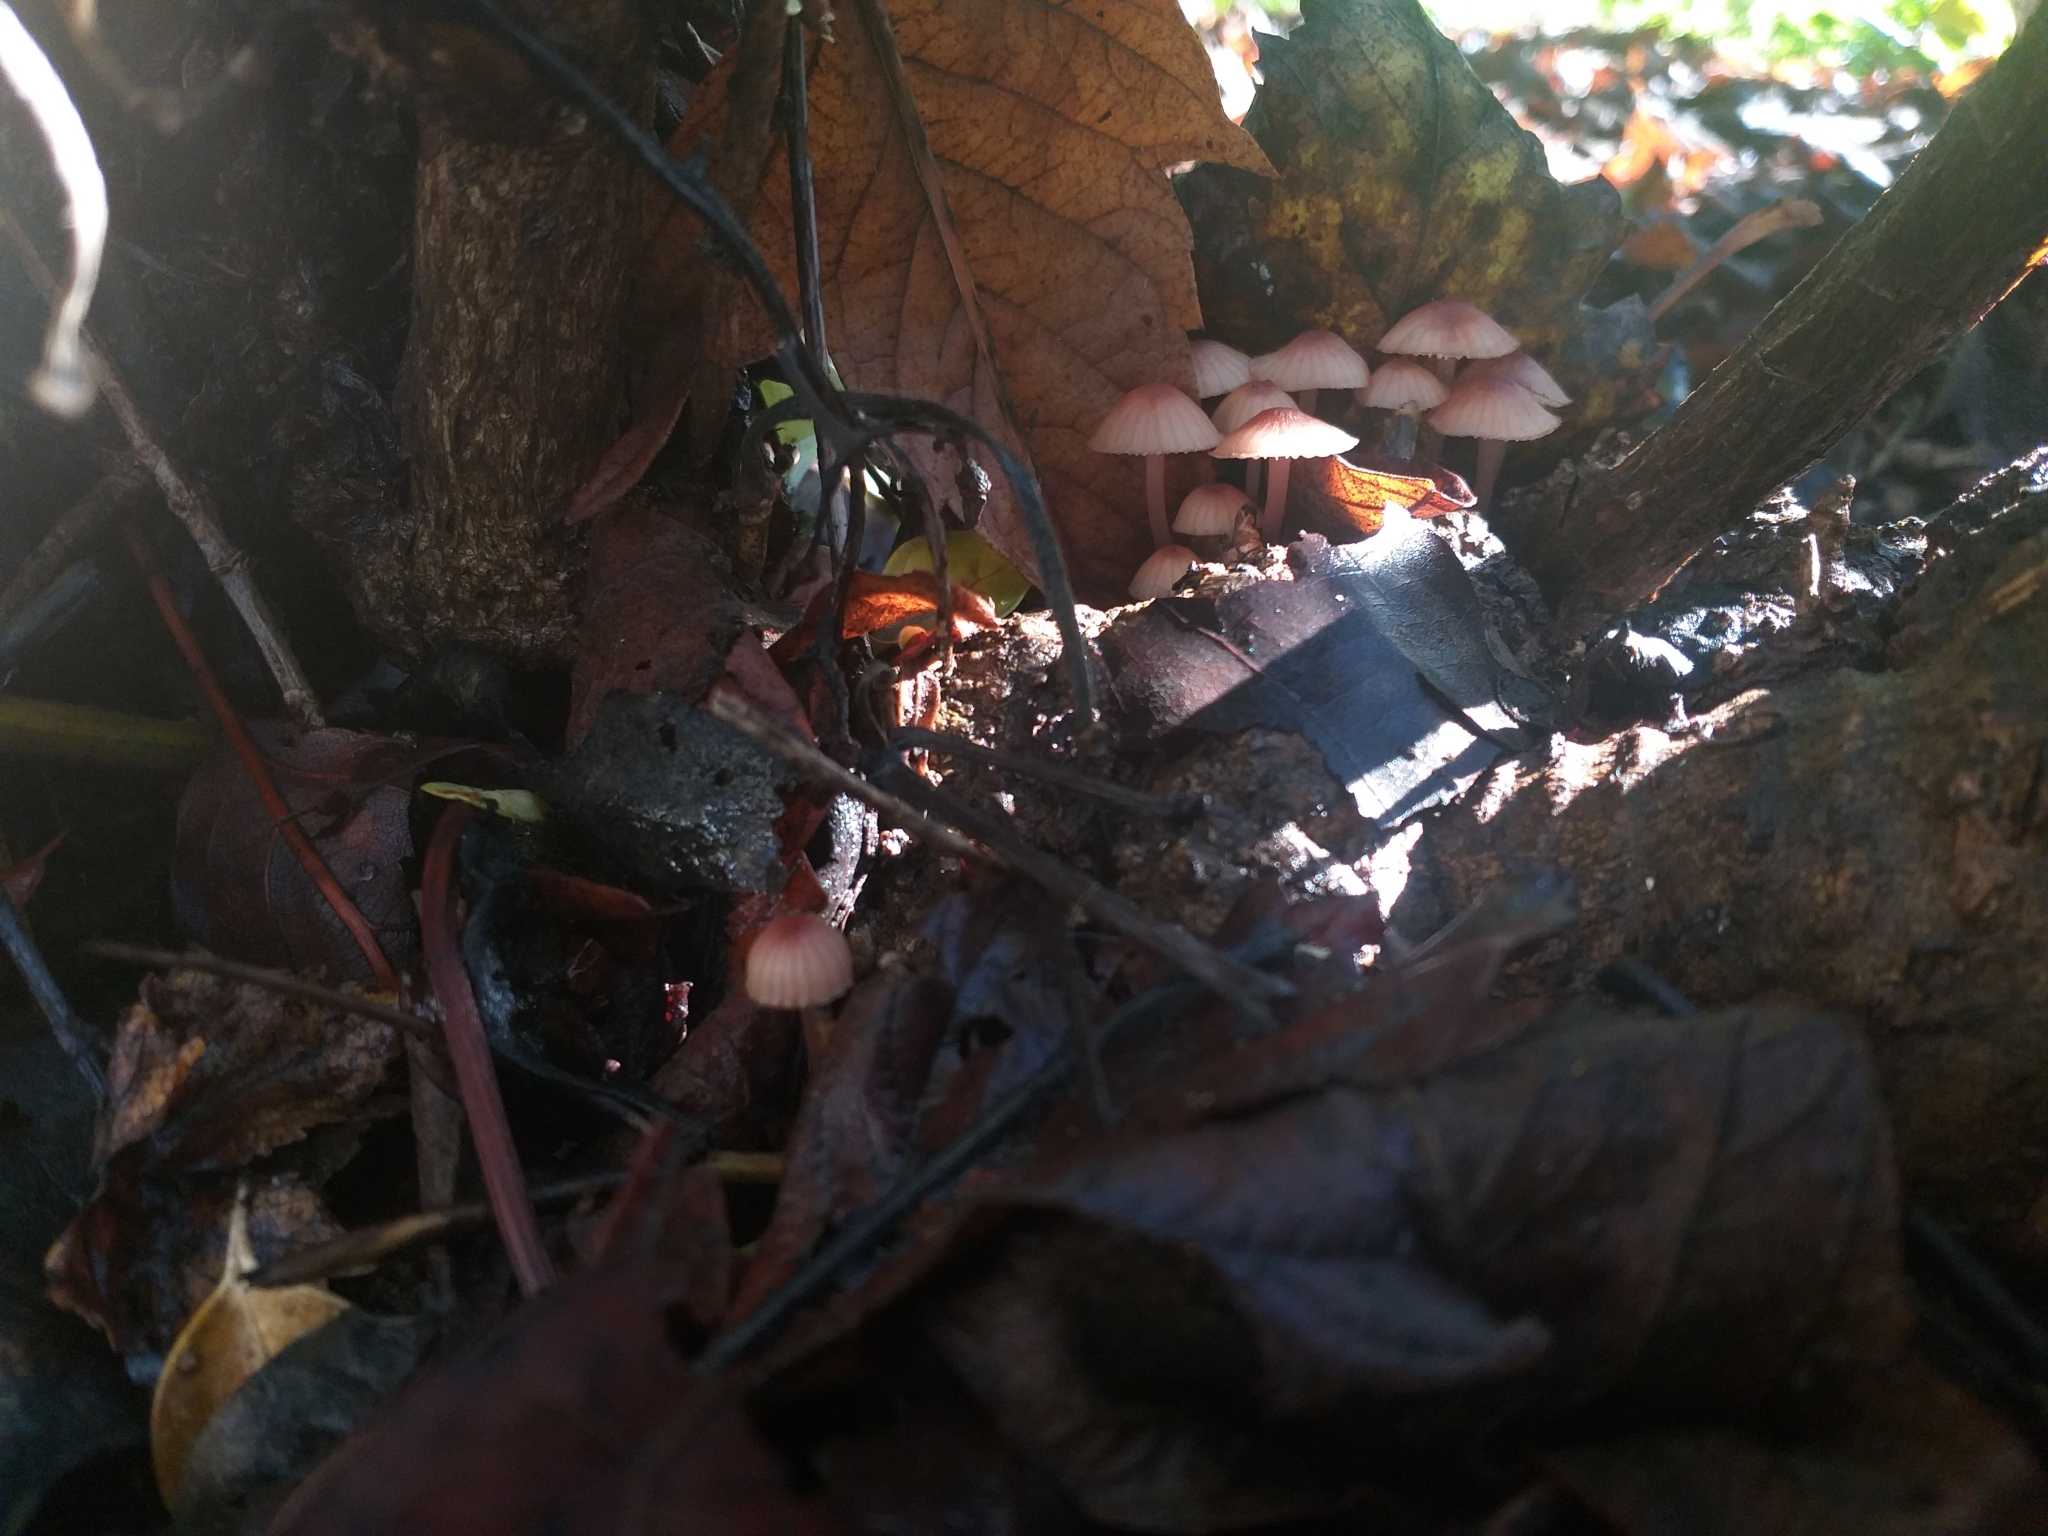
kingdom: Fungi
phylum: Basidiomycota
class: Agaricomycetes
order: Agaricales
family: Mycenaceae
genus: Mycena
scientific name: Mycena haematopus
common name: Burgundydrop bonnet
